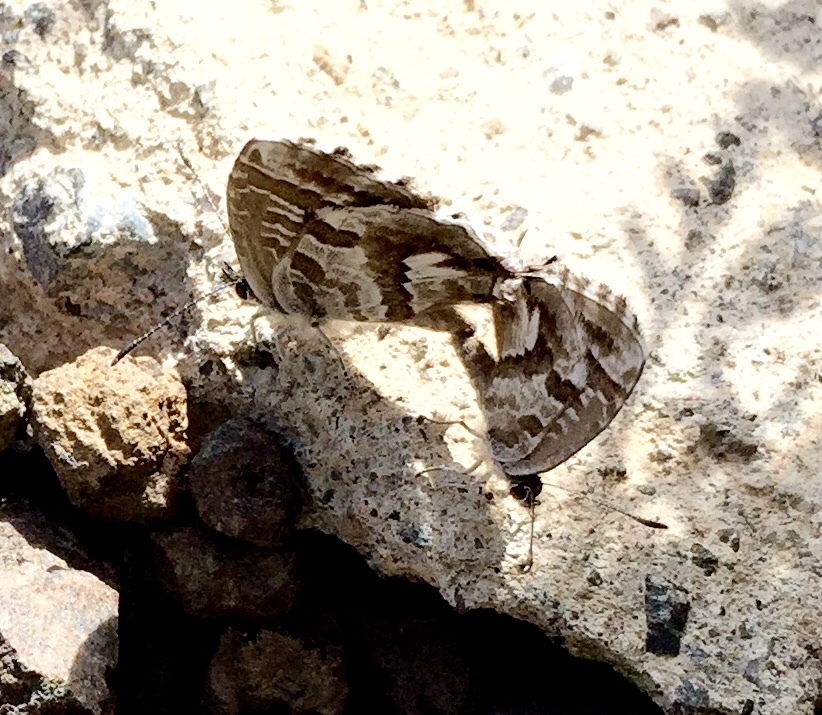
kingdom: Animalia
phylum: Arthropoda
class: Insecta
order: Lepidoptera
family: Lycaenidae
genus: Cacyreus
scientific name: Cacyreus marshalli
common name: Geranium bronze
